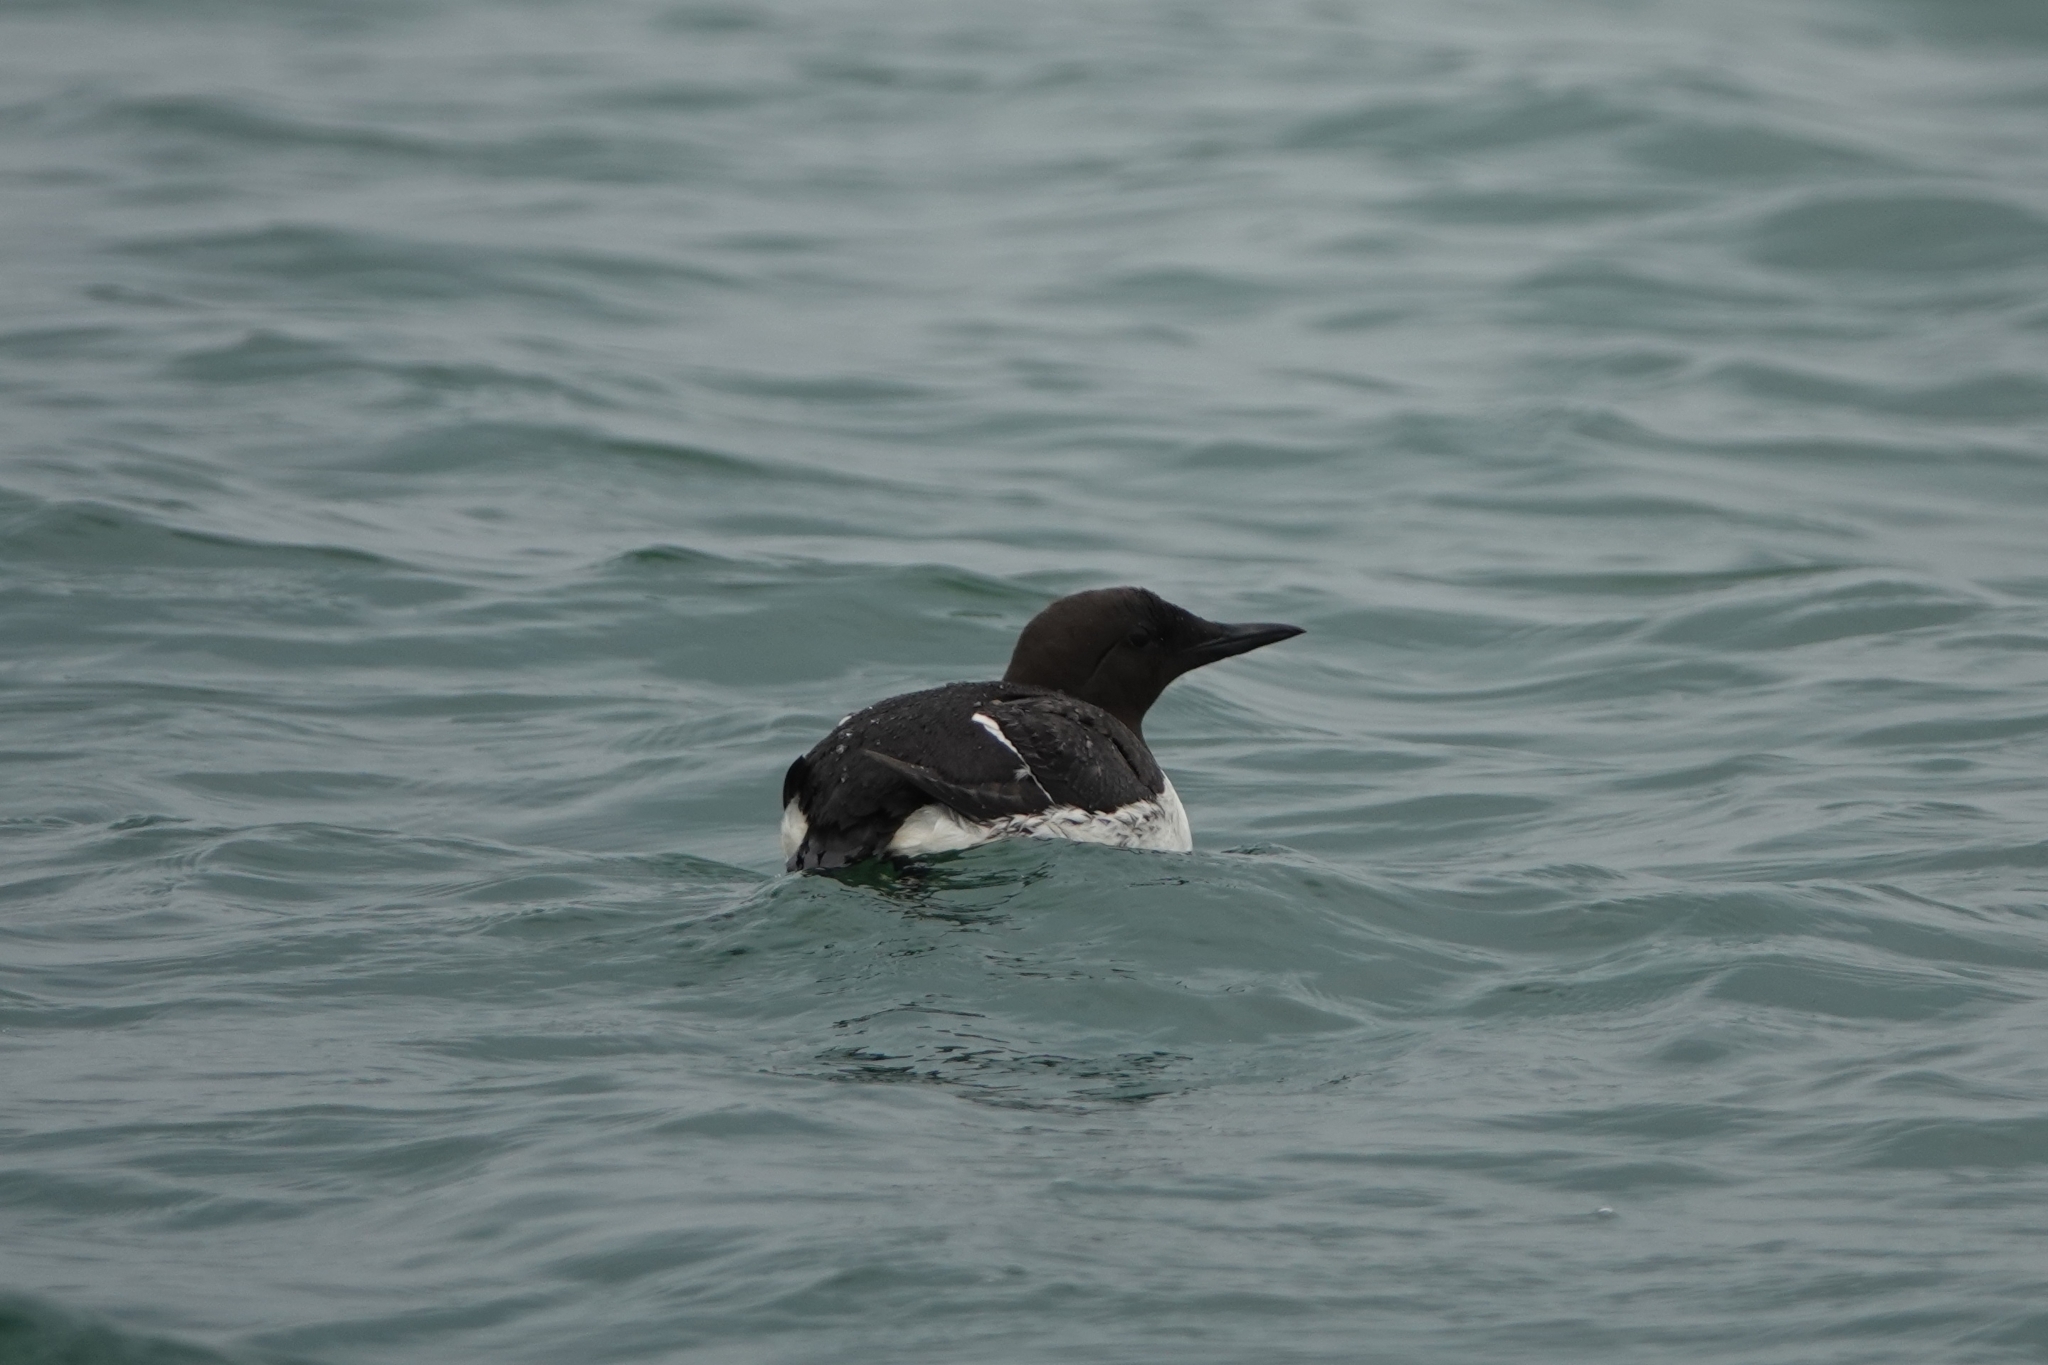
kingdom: Animalia
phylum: Chordata
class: Aves
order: Charadriiformes
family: Alcidae
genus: Uria
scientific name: Uria aalge
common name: Common murre
